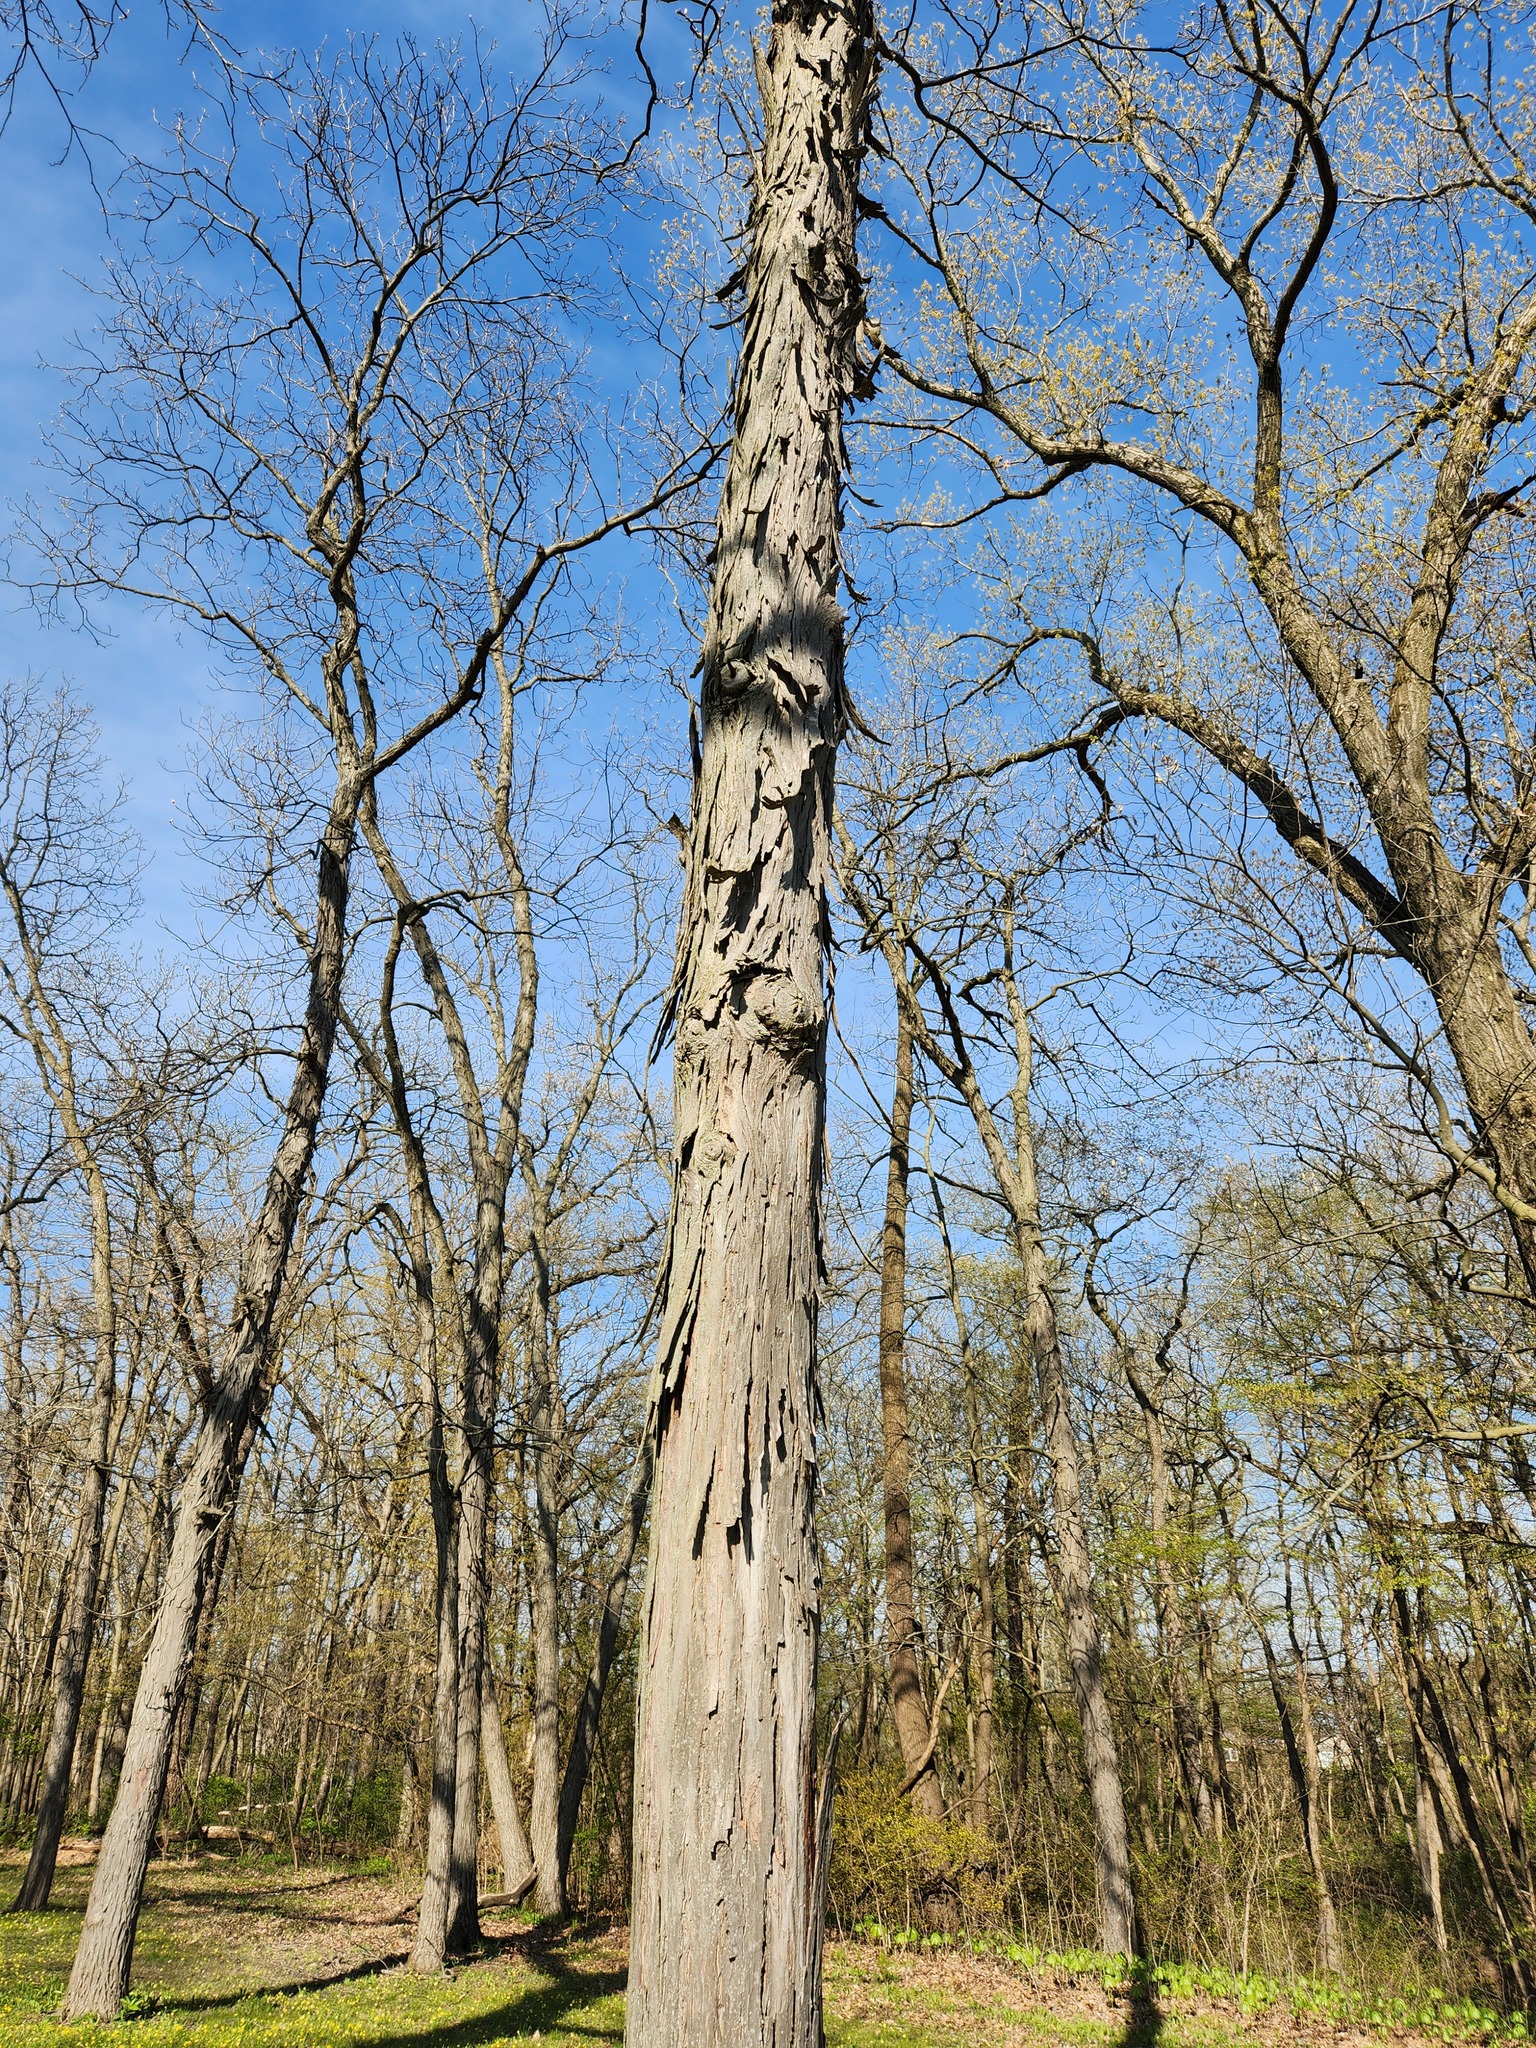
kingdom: Plantae
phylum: Tracheophyta
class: Magnoliopsida
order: Fagales
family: Juglandaceae
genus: Carya
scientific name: Carya ovata
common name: Shagbark hickory
